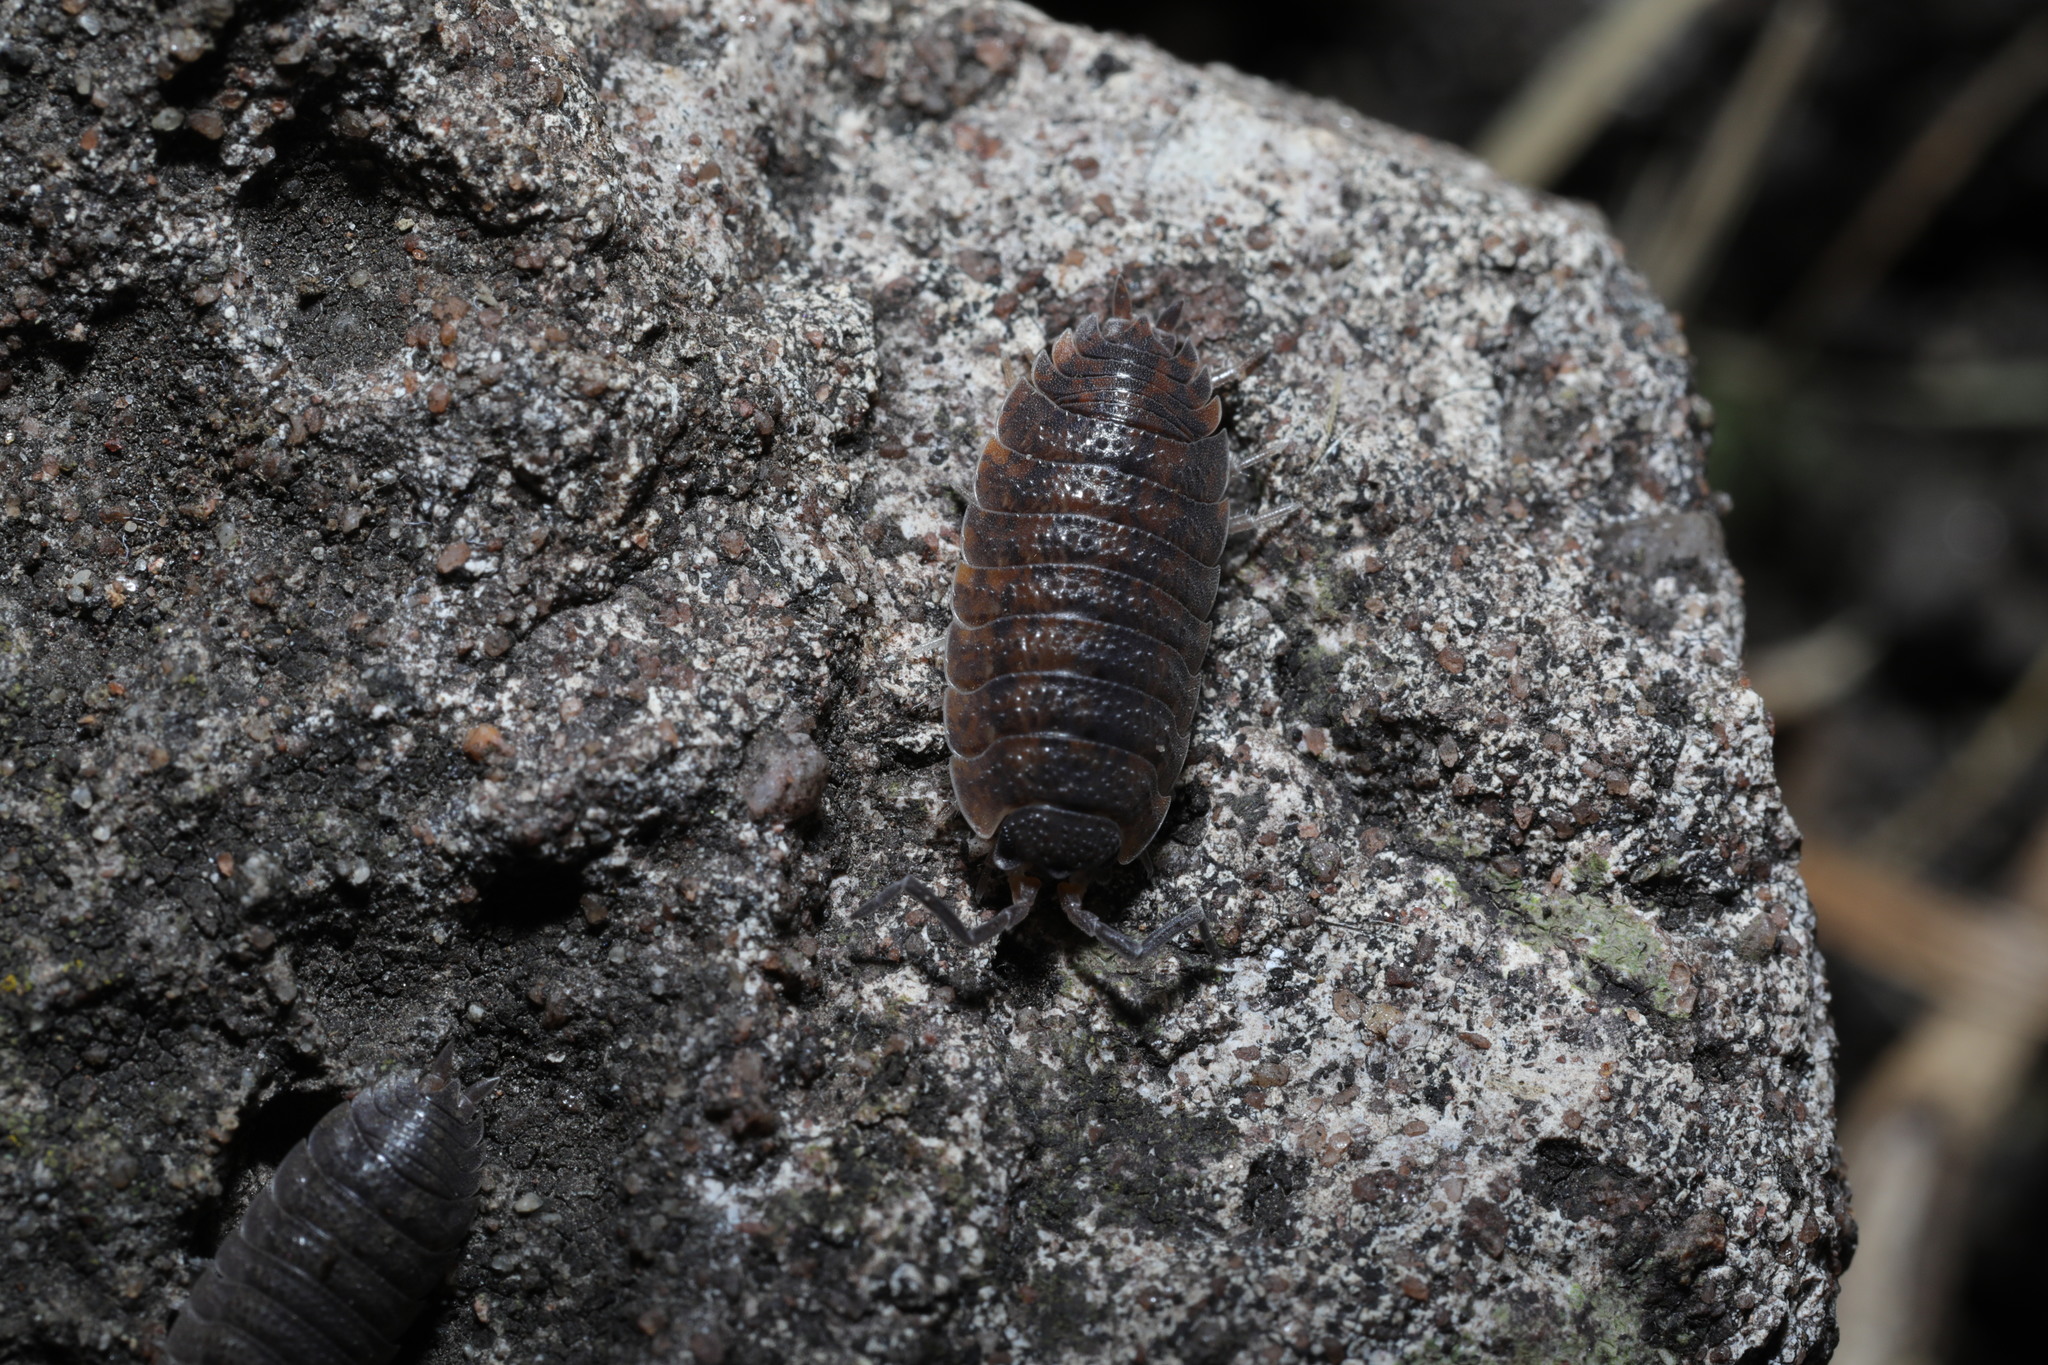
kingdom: Animalia
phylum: Arthropoda
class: Malacostraca
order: Isopoda
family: Porcellionidae
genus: Porcellio
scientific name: Porcellio scaber
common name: Common rough woodlouse
